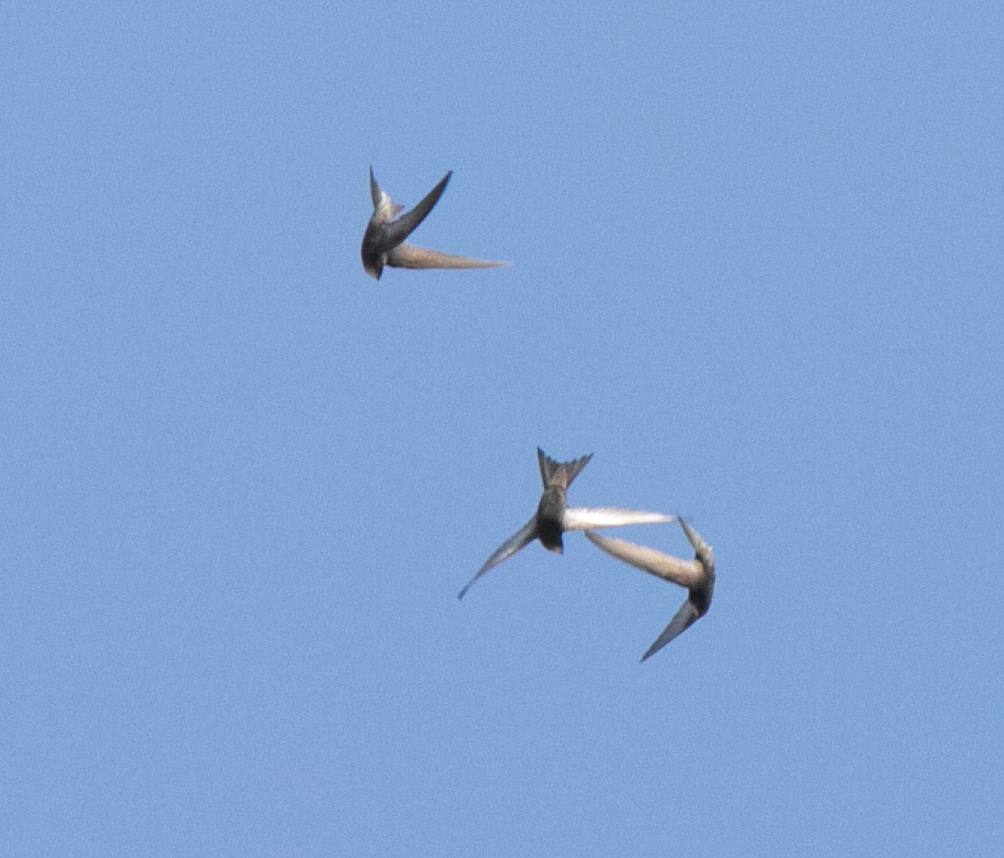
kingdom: Animalia
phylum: Chordata
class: Aves
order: Apodiformes
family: Apodidae
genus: Apus
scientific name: Apus apus
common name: Common swift
